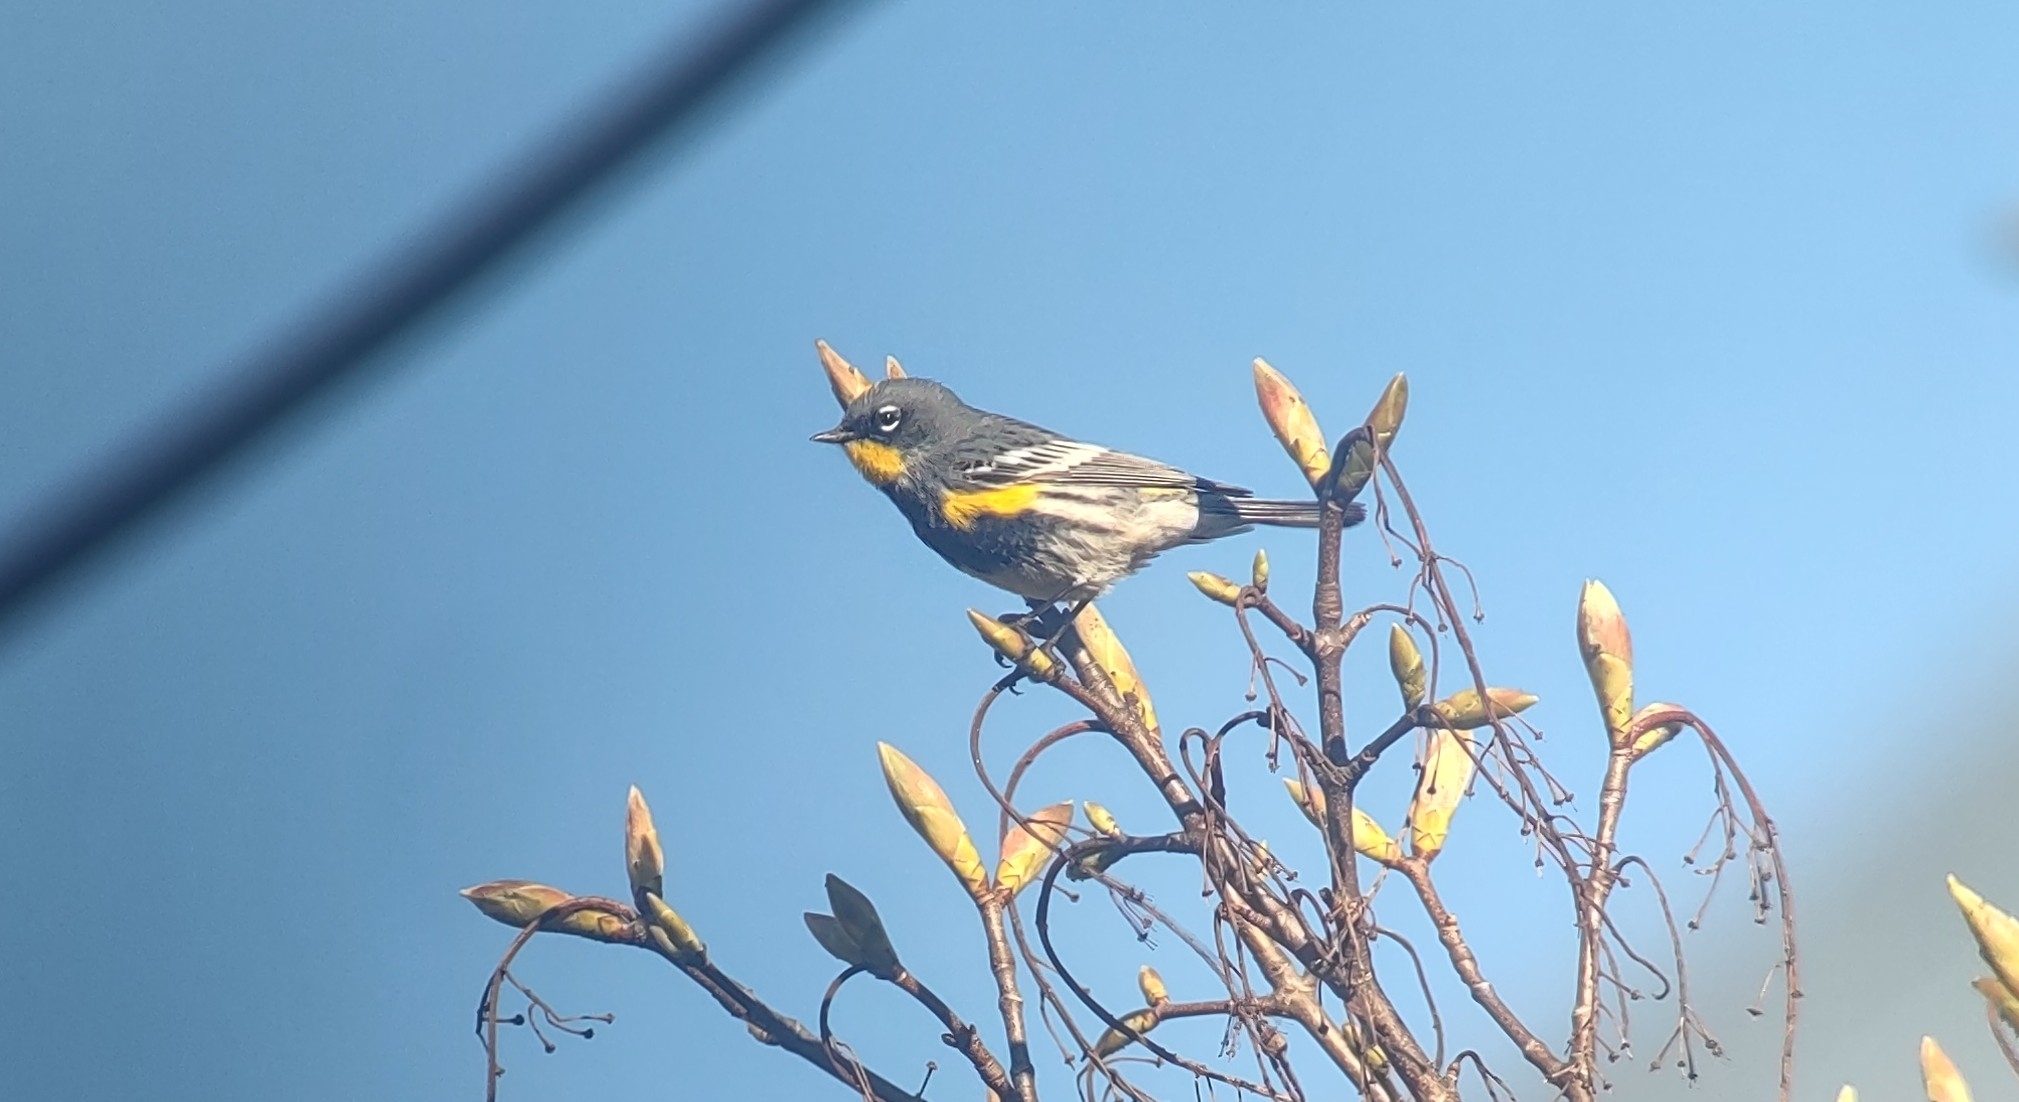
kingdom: Animalia
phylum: Chordata
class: Aves
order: Passeriformes
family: Parulidae
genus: Setophaga
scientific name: Setophaga auduboni
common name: Audubon's warbler
